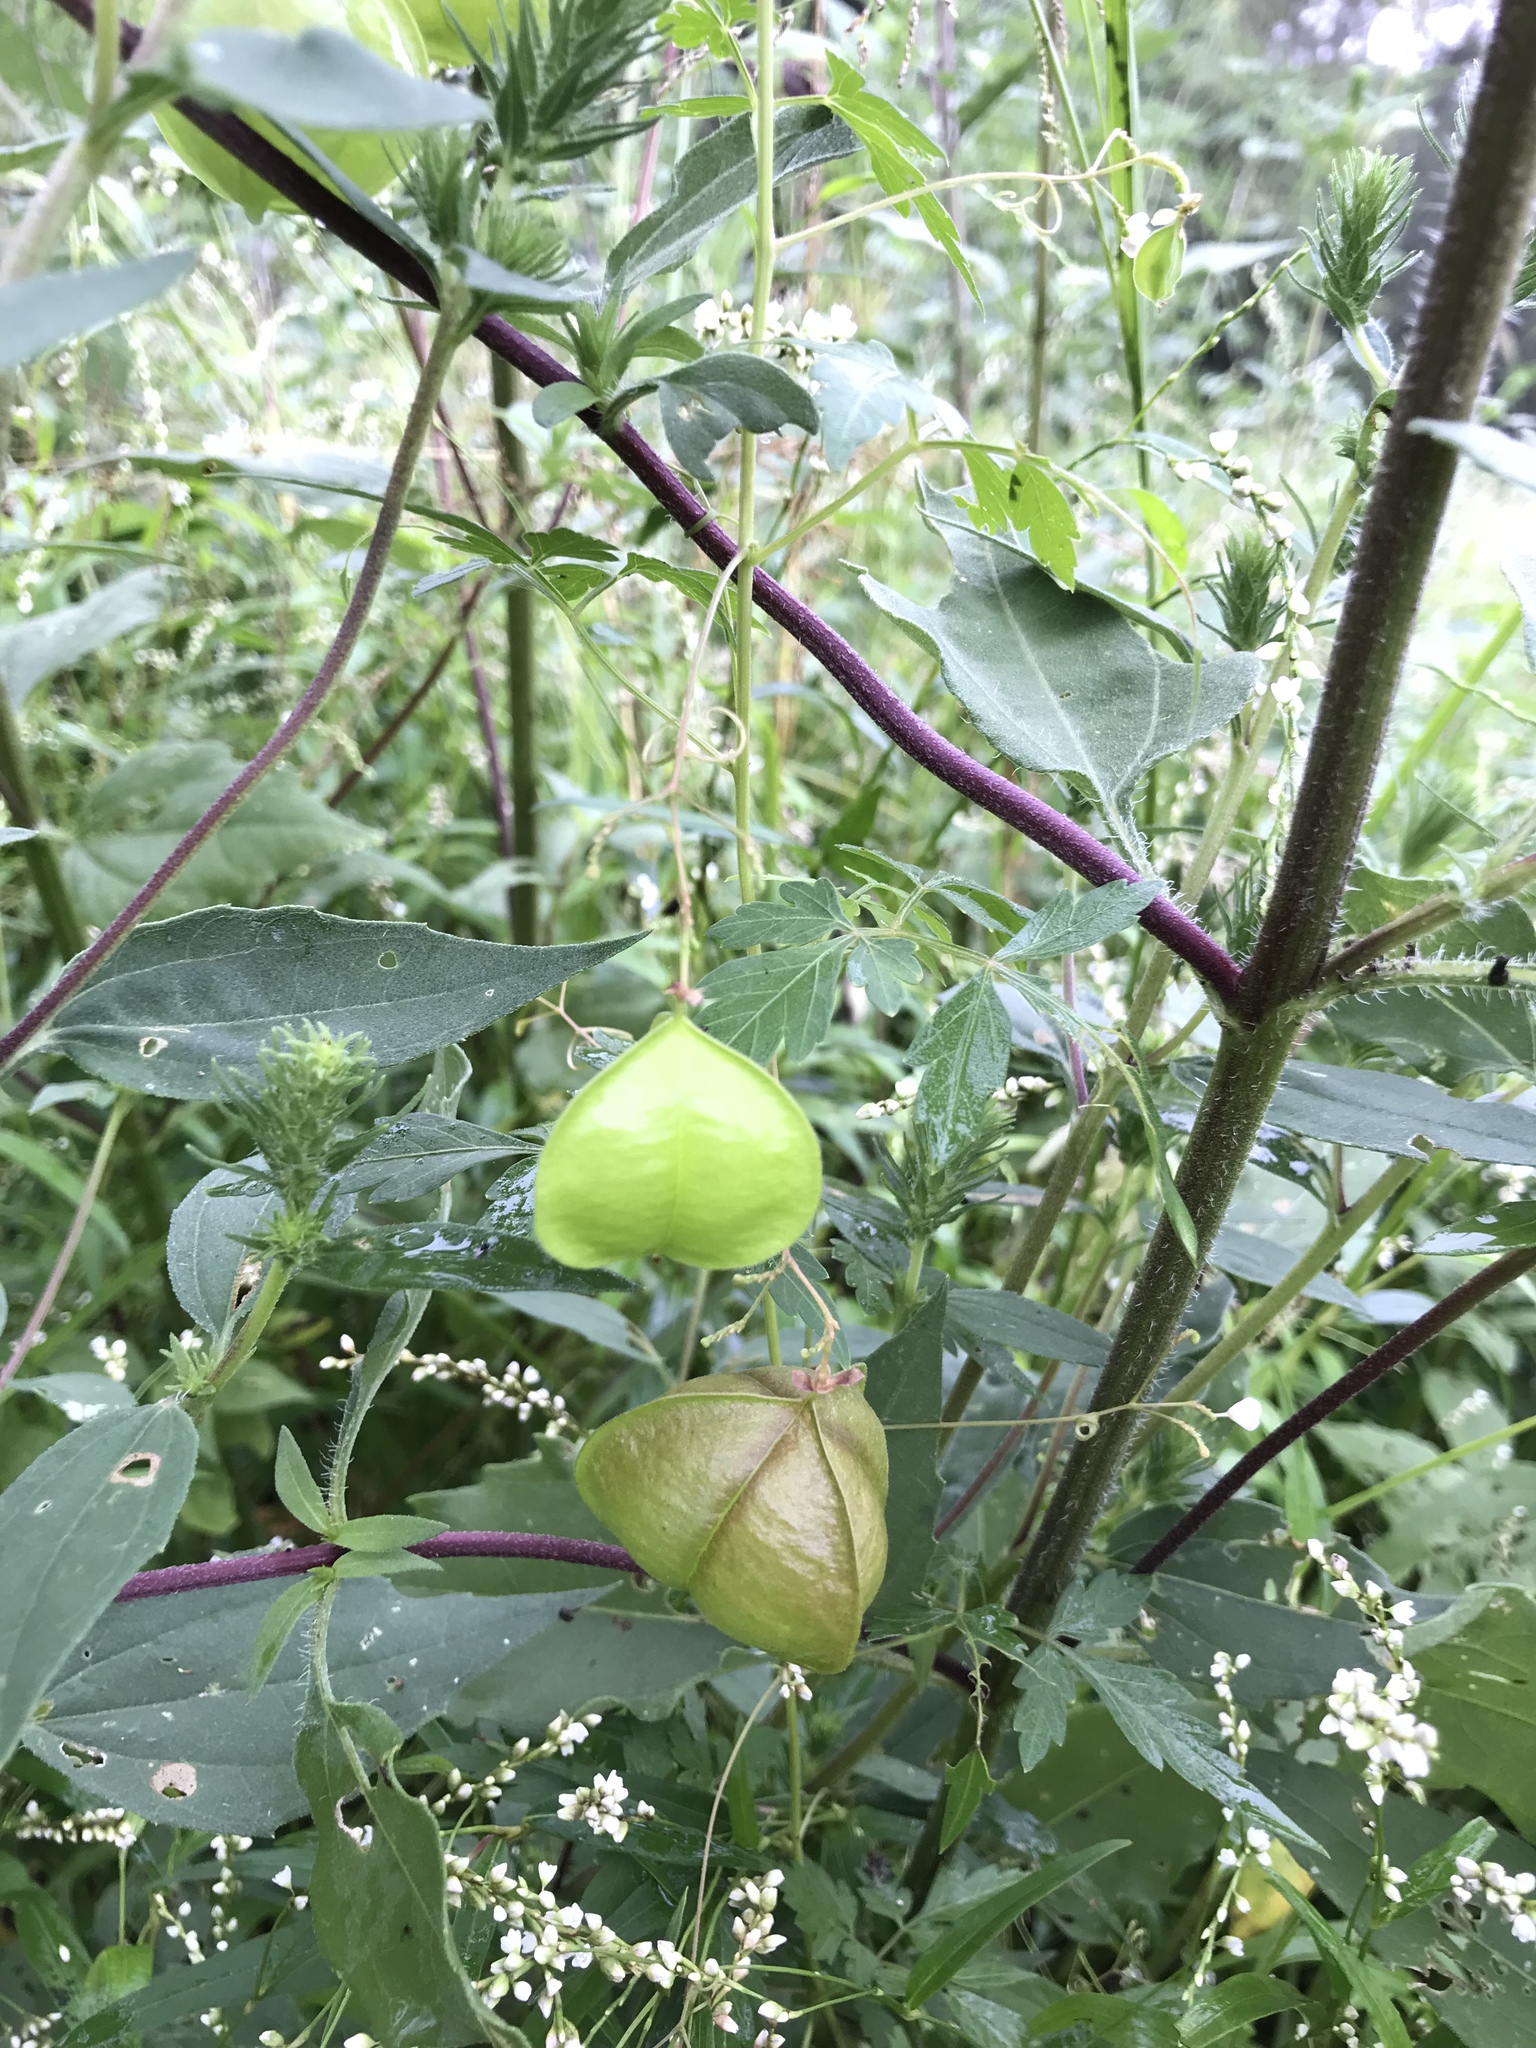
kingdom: Plantae
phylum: Tracheophyta
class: Magnoliopsida
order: Sapindales
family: Sapindaceae
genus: Cardiospermum
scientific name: Cardiospermum halicacabum
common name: Balloon vine
